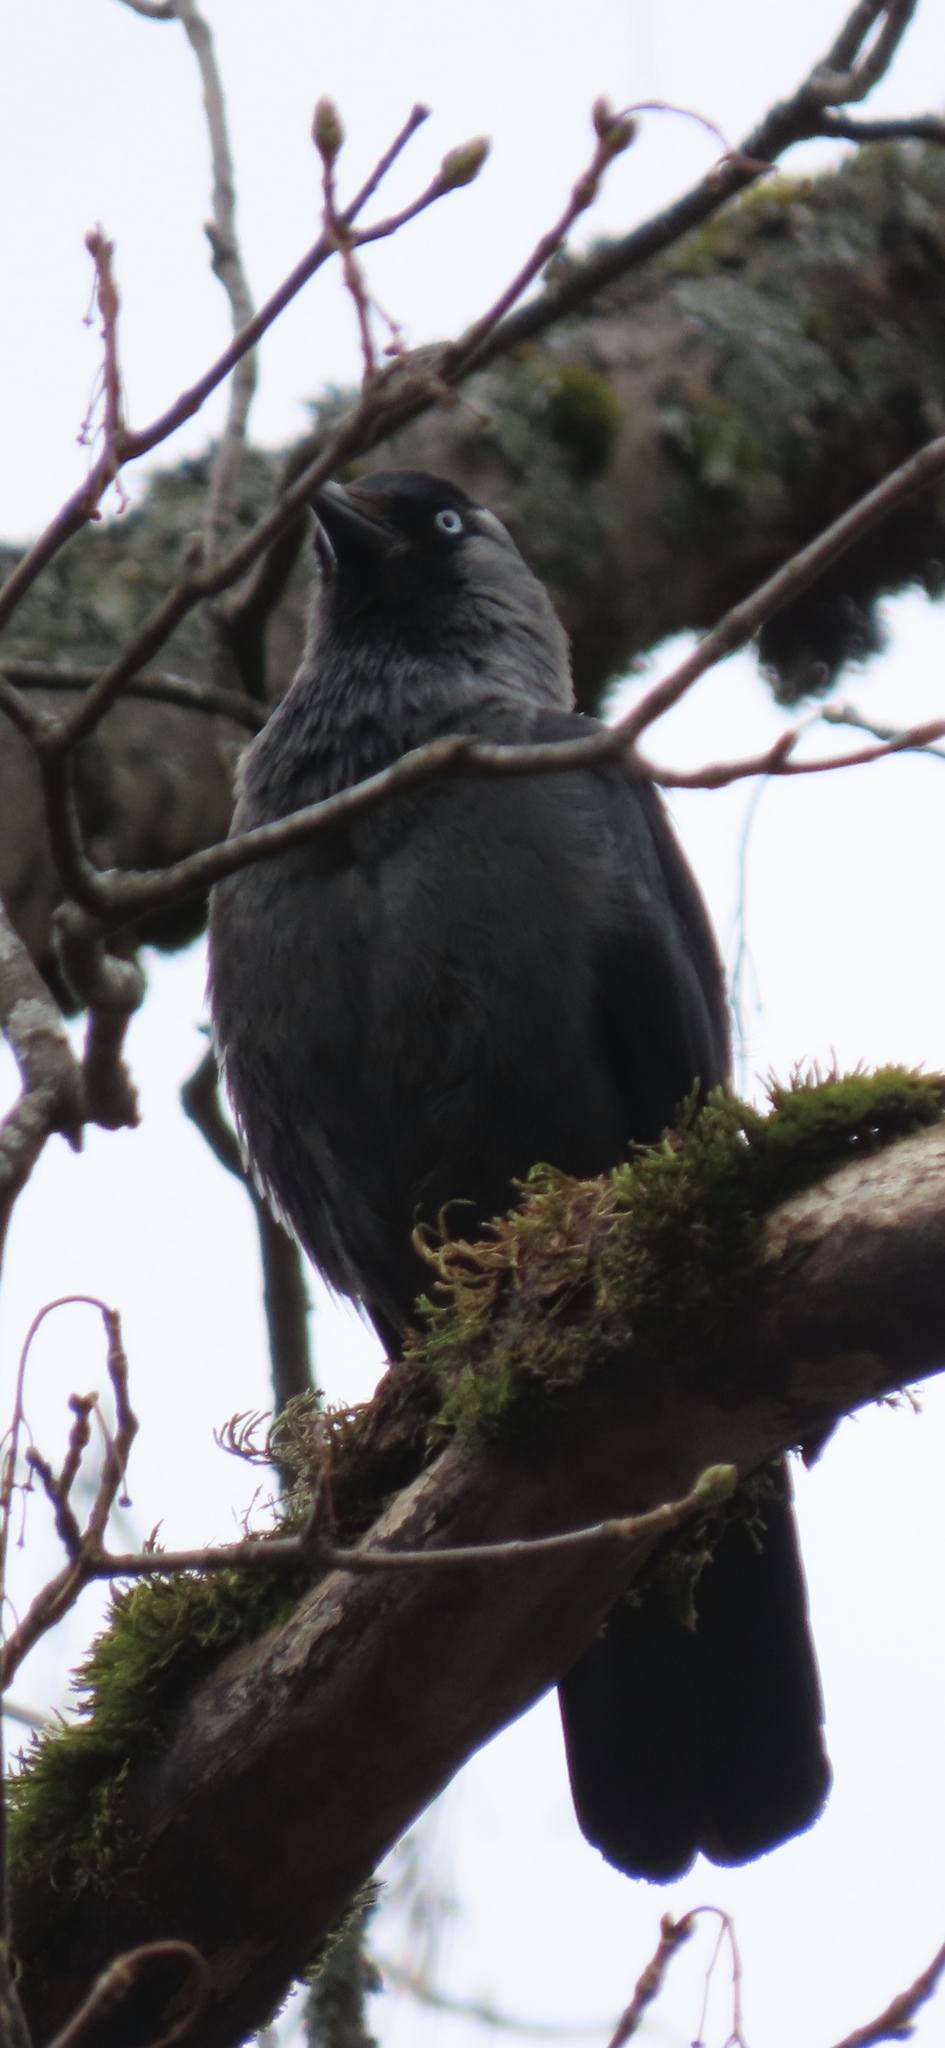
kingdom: Animalia
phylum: Chordata
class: Aves
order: Passeriformes
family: Corvidae
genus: Coloeus
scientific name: Coloeus monedula
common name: Western jackdaw
